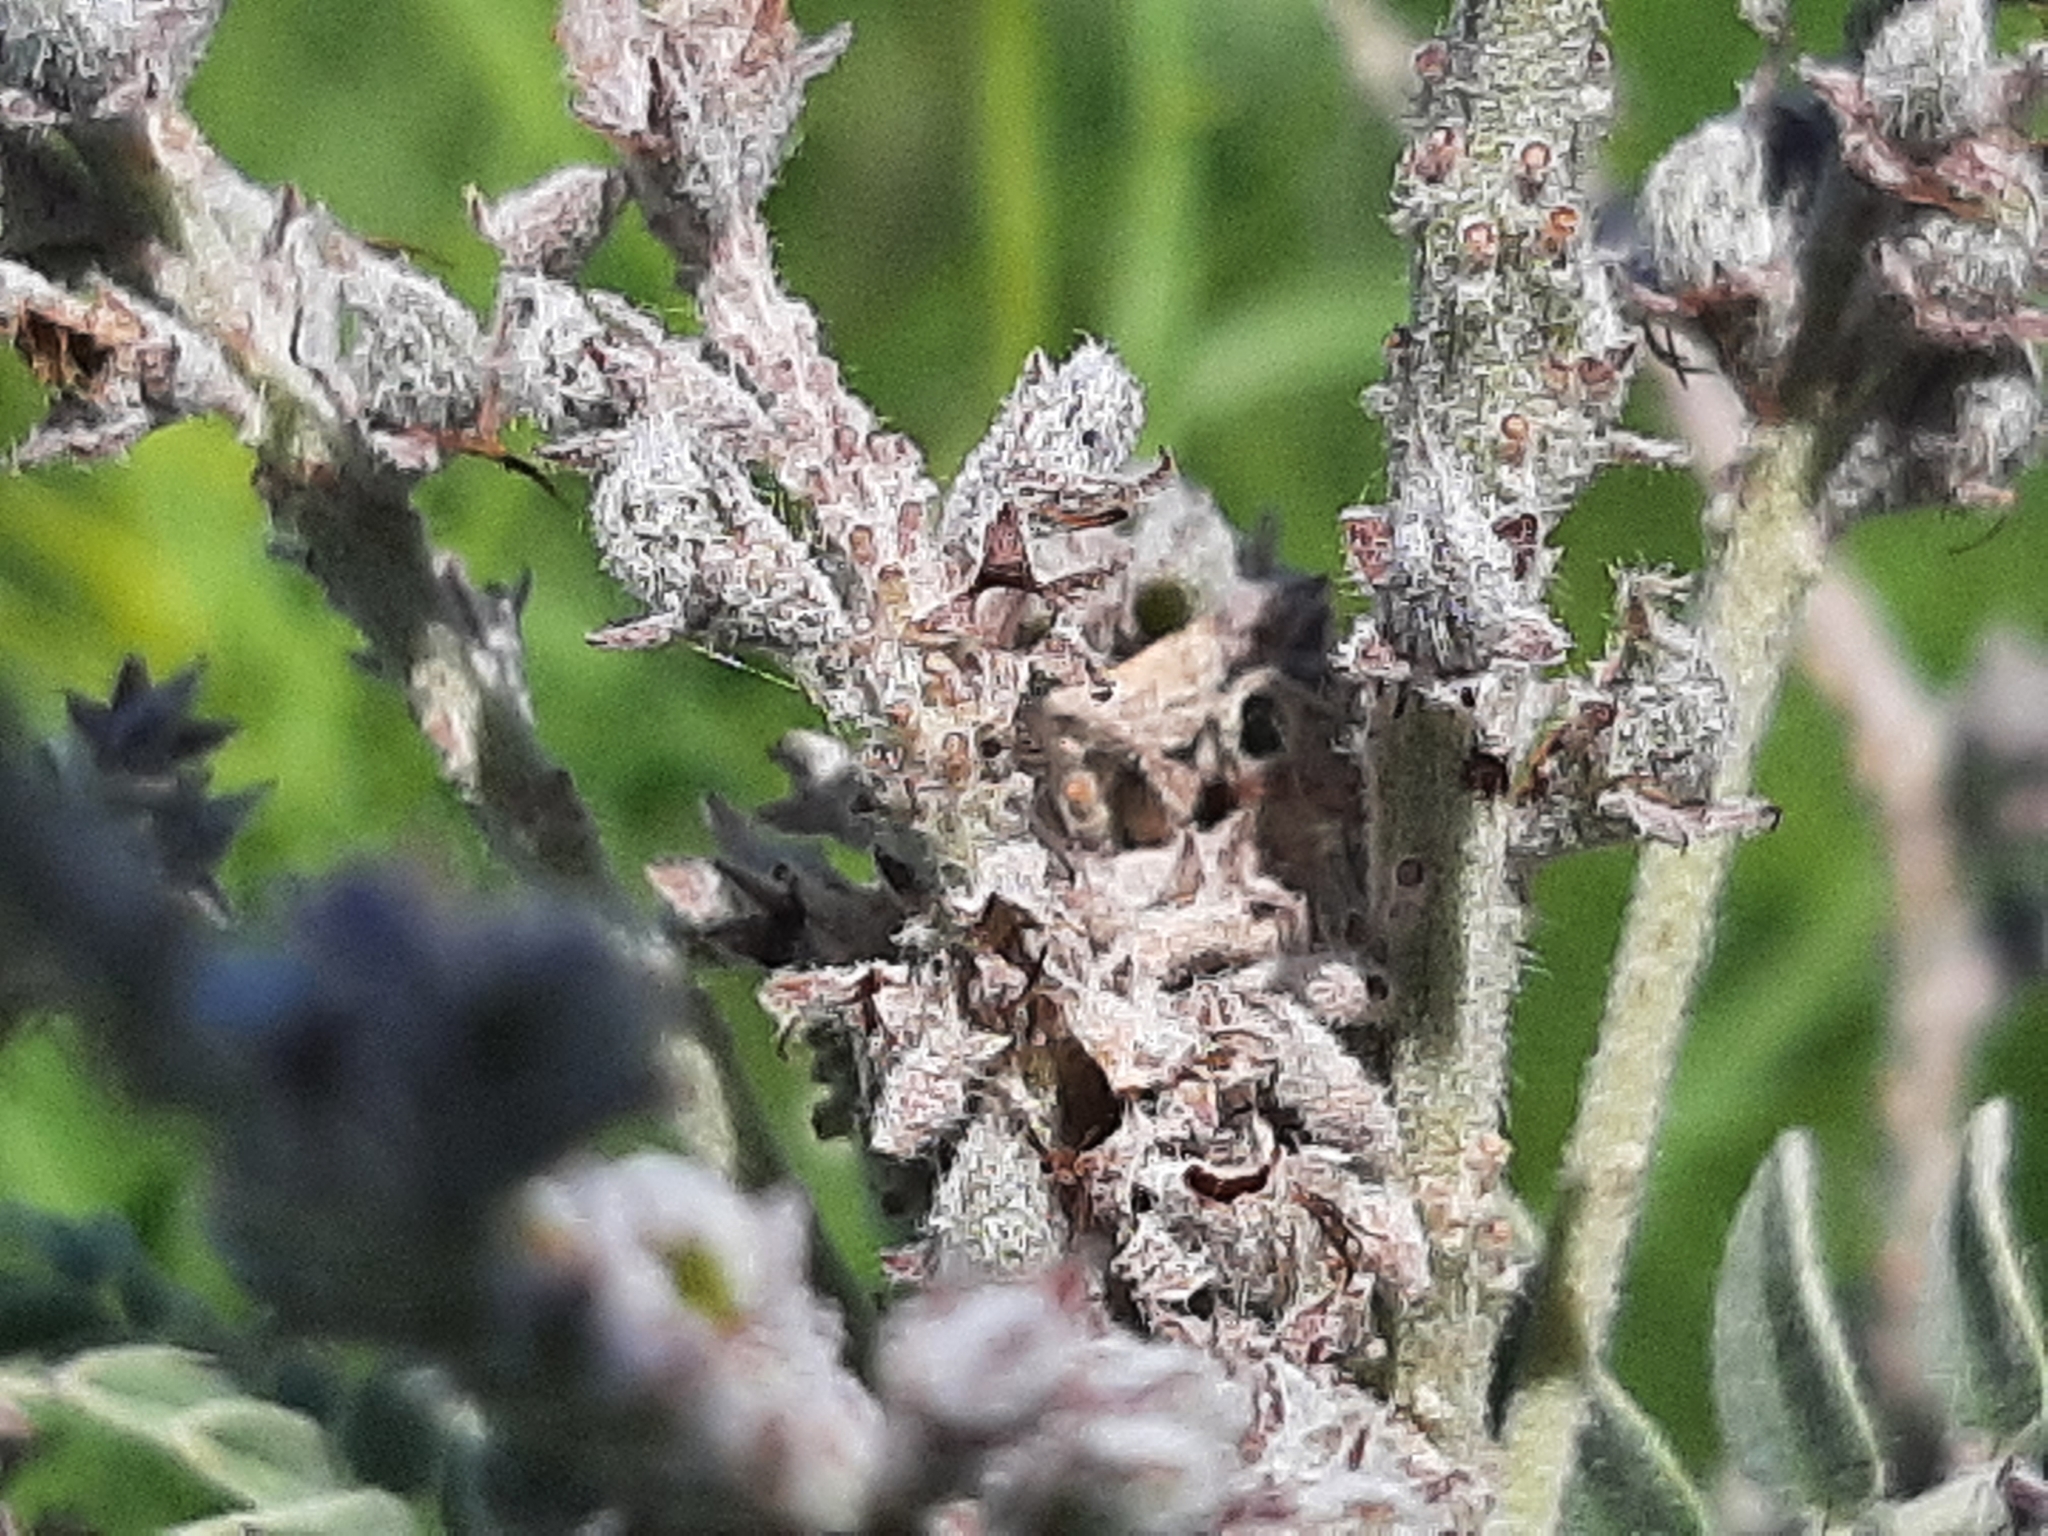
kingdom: Plantae
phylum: Tracheophyta
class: Magnoliopsida
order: Fabales
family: Fabaceae
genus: Amorpha
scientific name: Amorpha canescens
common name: Leadplant
